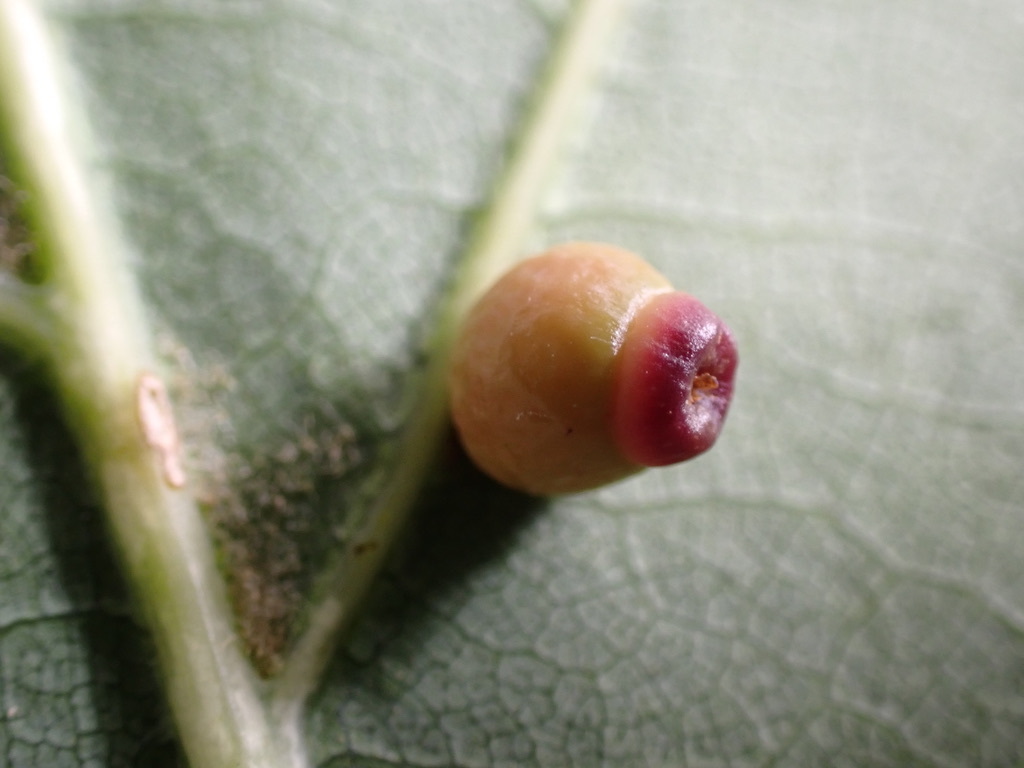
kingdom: Animalia
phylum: Arthropoda
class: Insecta
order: Hymenoptera
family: Cynipidae
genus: Kokkocynips
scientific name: Kokkocynips rileyi
